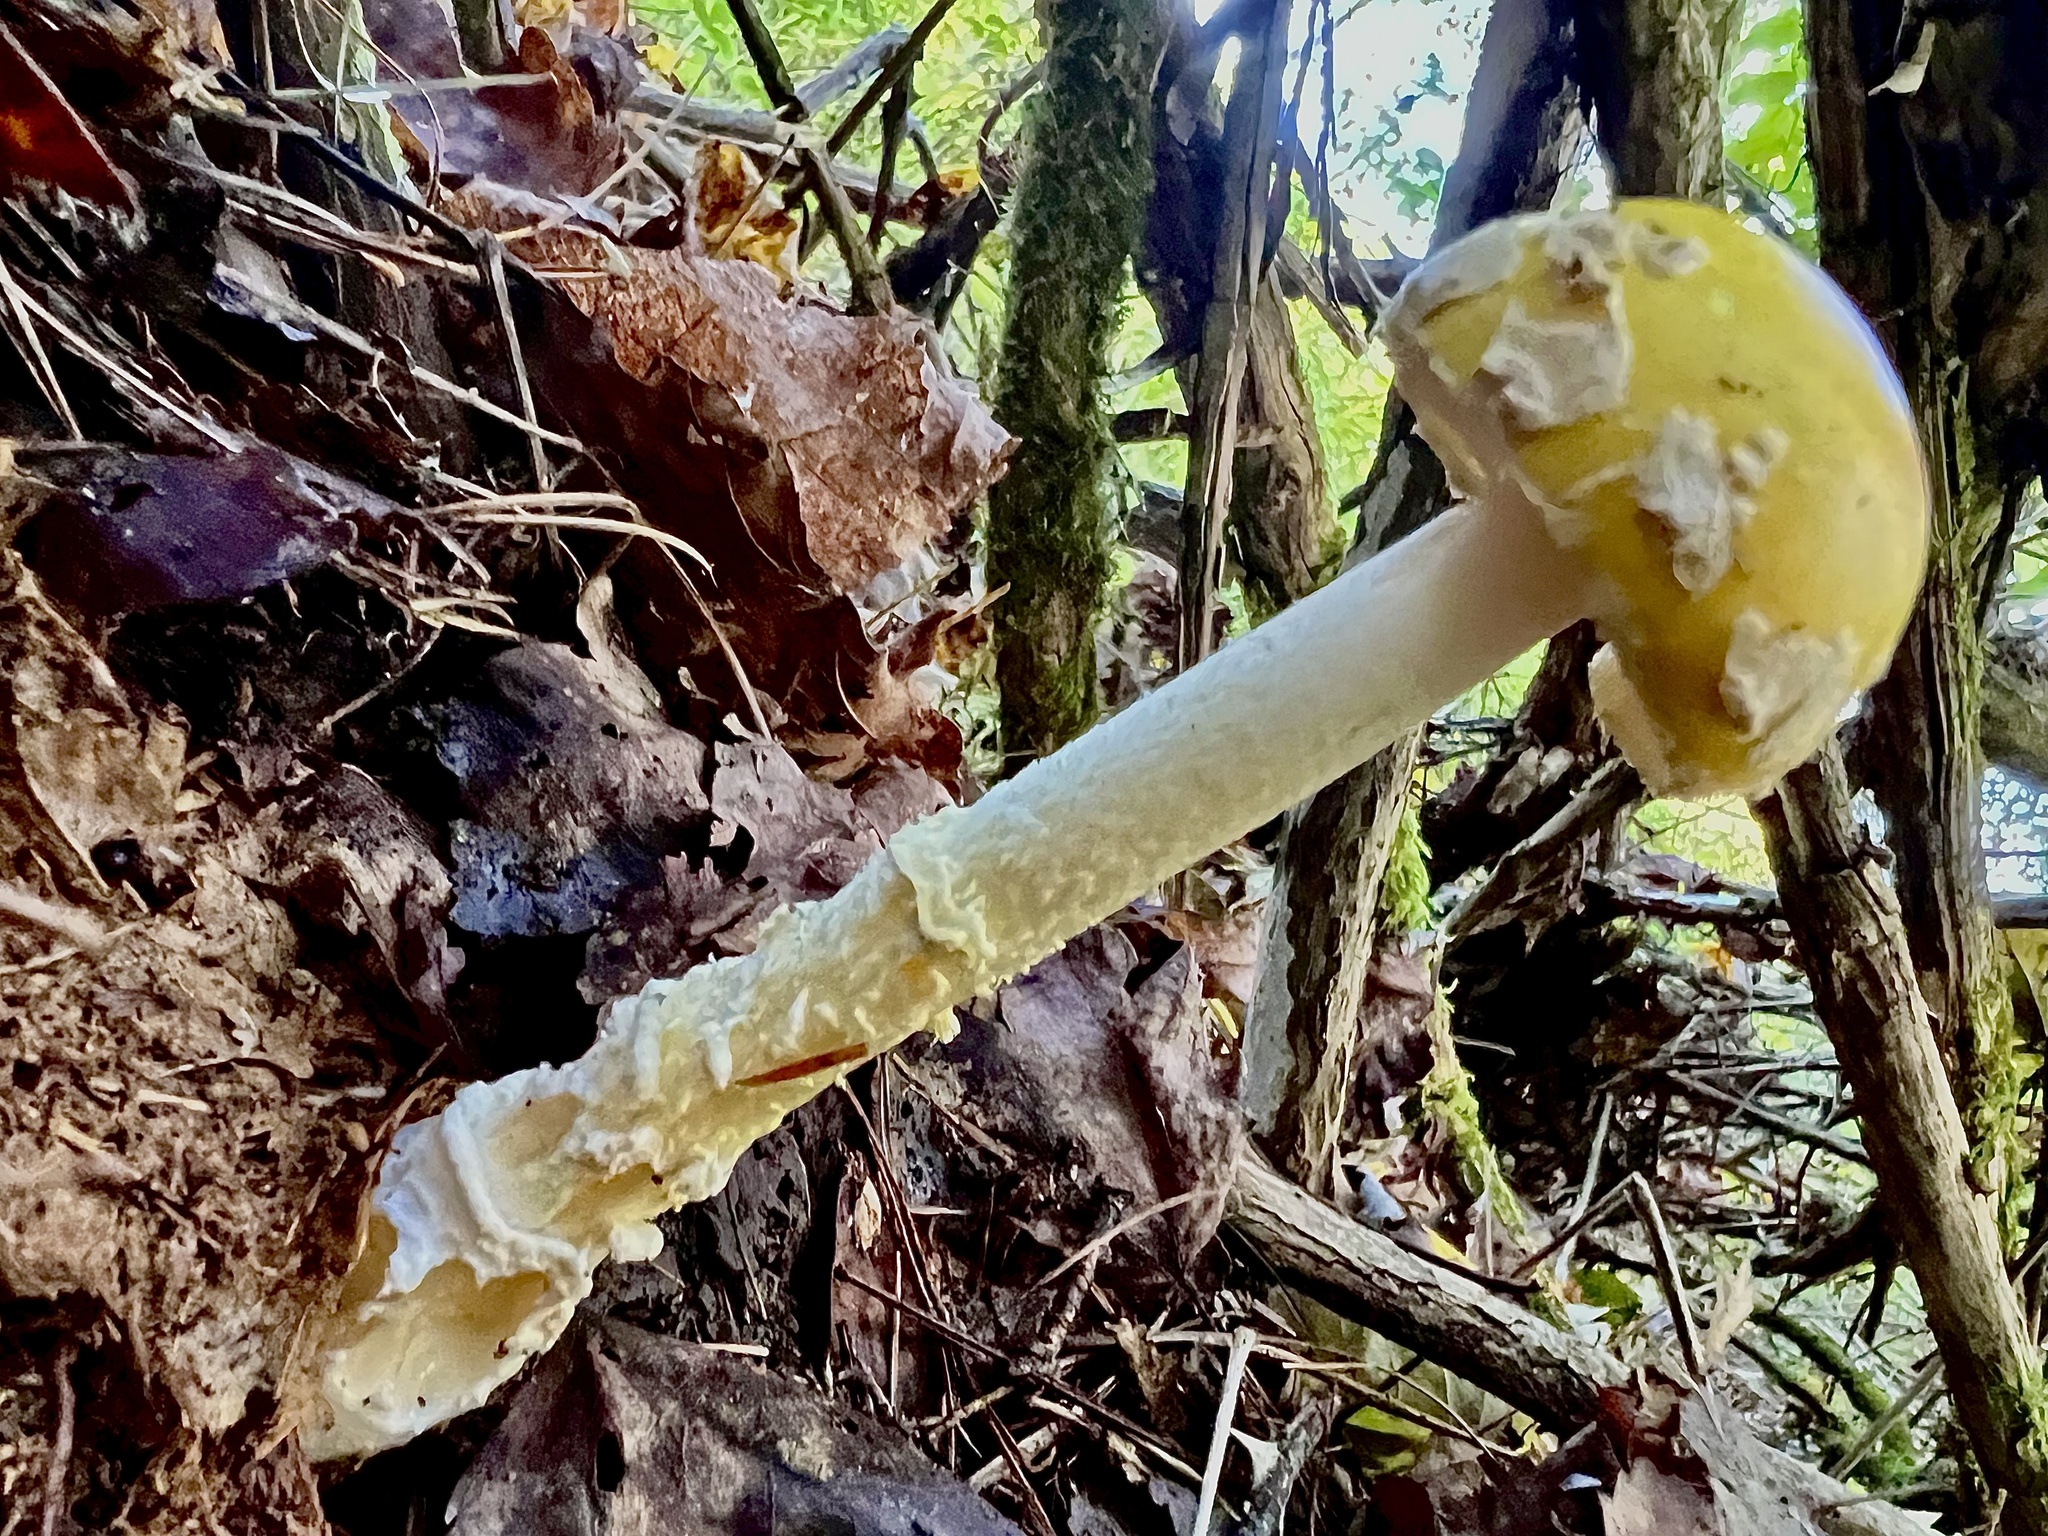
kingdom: Fungi
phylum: Basidiomycota
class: Agaricomycetes
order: Agaricales
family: Amanitaceae
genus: Amanita
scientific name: Amanita muscaria
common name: Fly agaric
